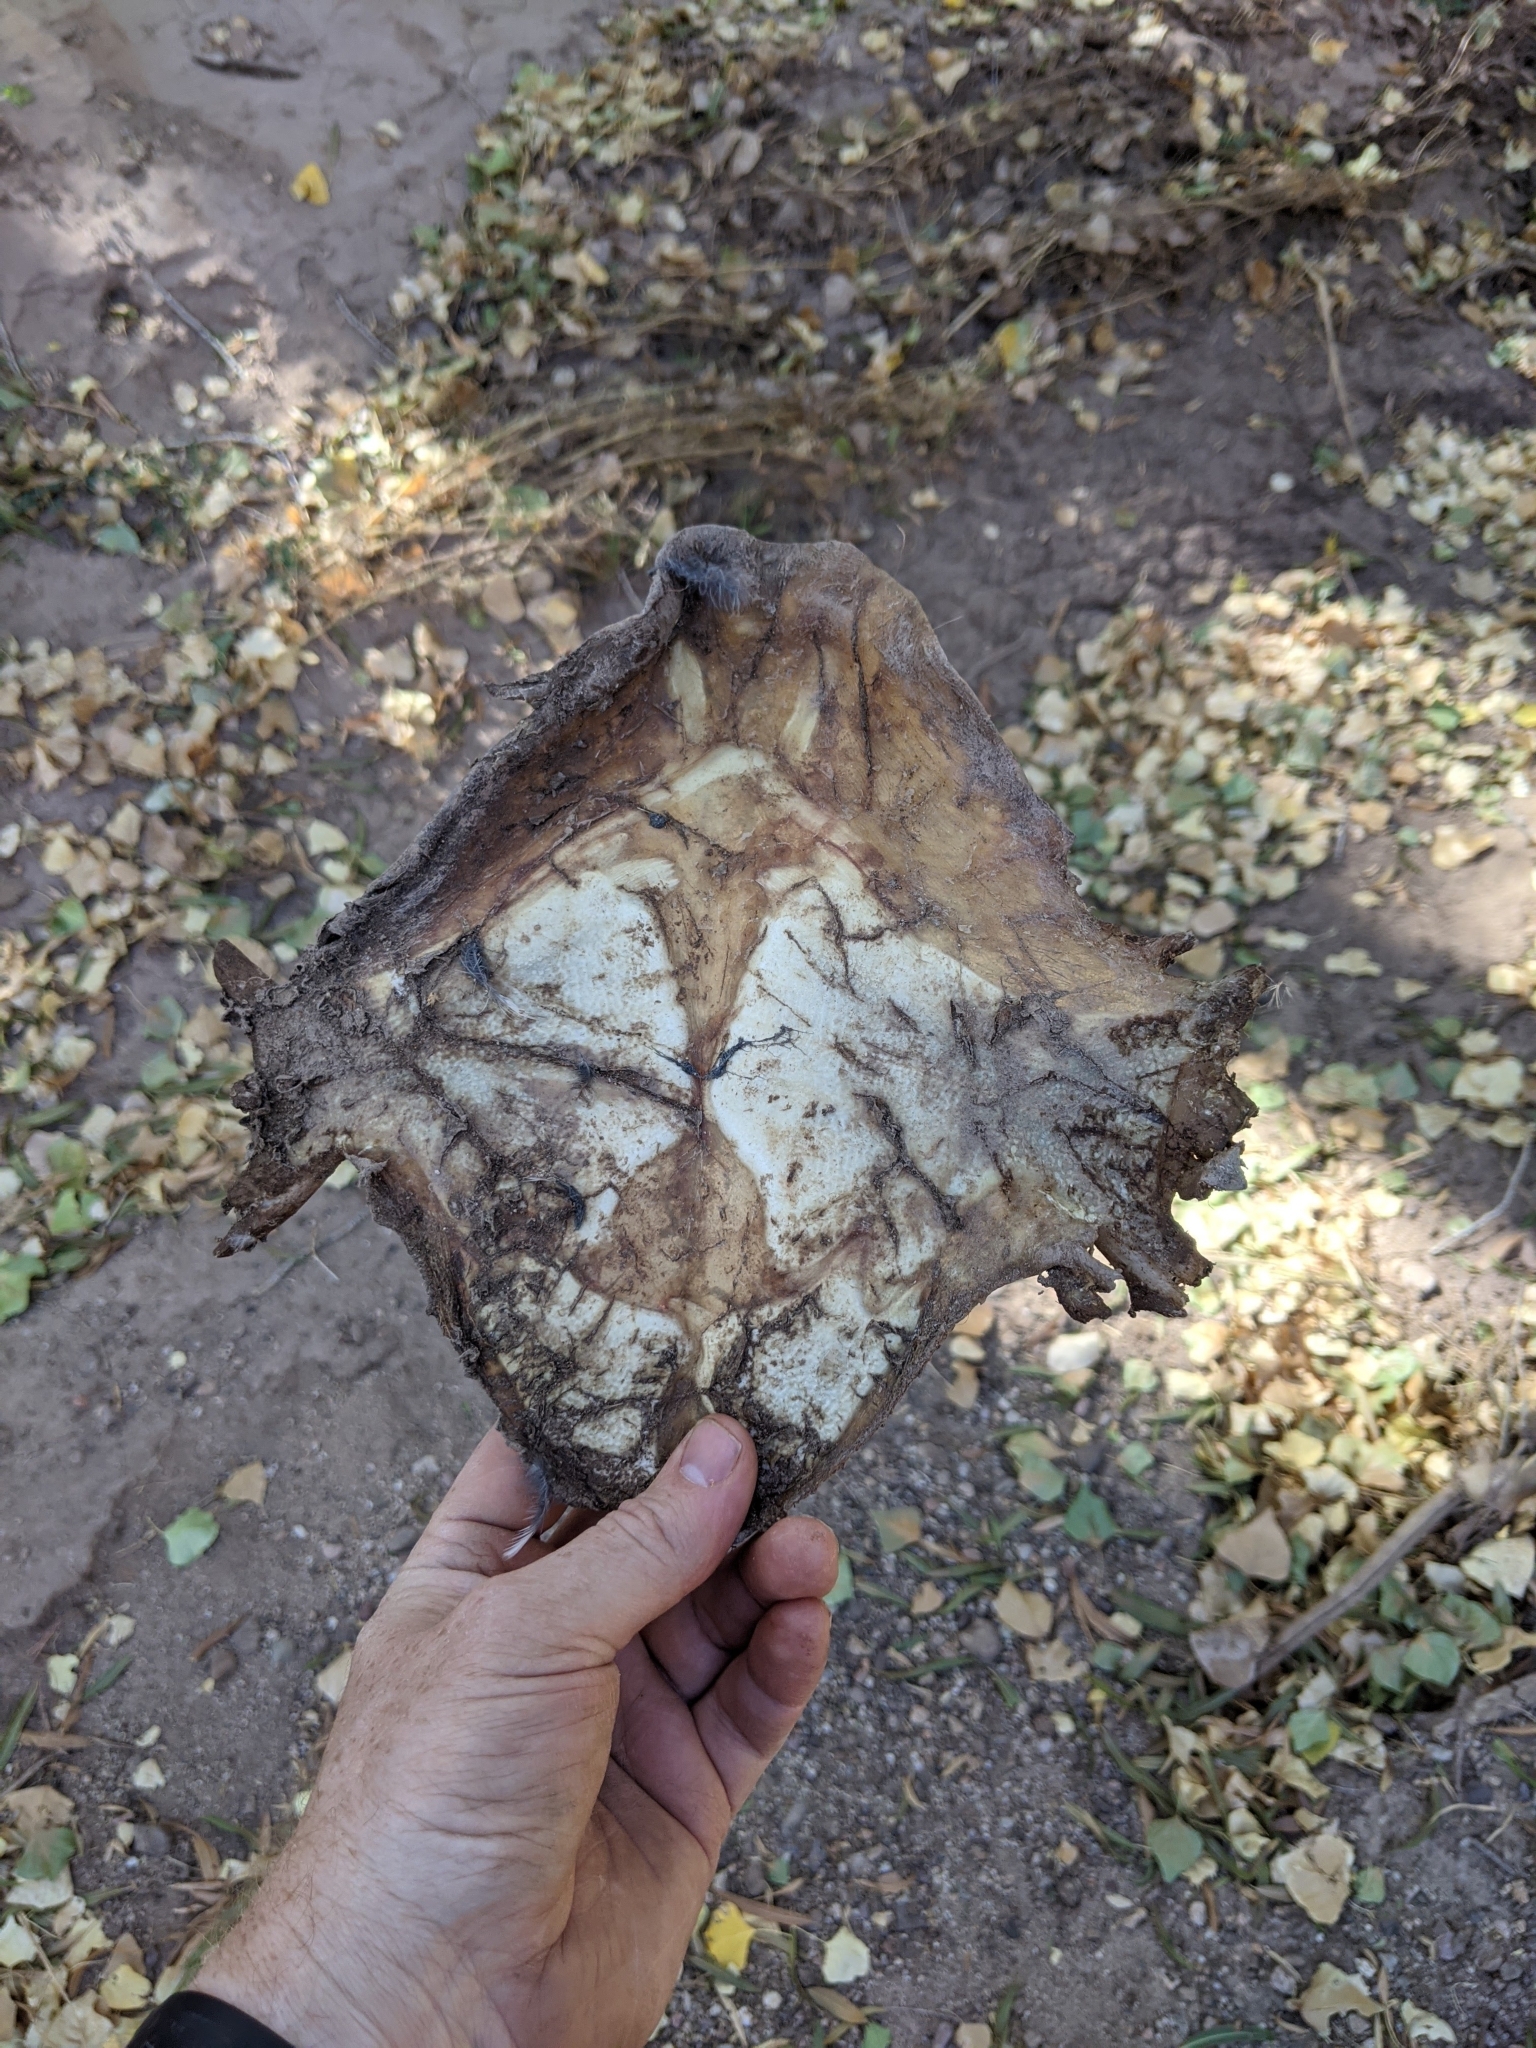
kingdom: Animalia
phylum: Chordata
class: Testudines
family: Trionychidae
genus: Apalone
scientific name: Apalone spinifera
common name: Spiny softshell turtle
